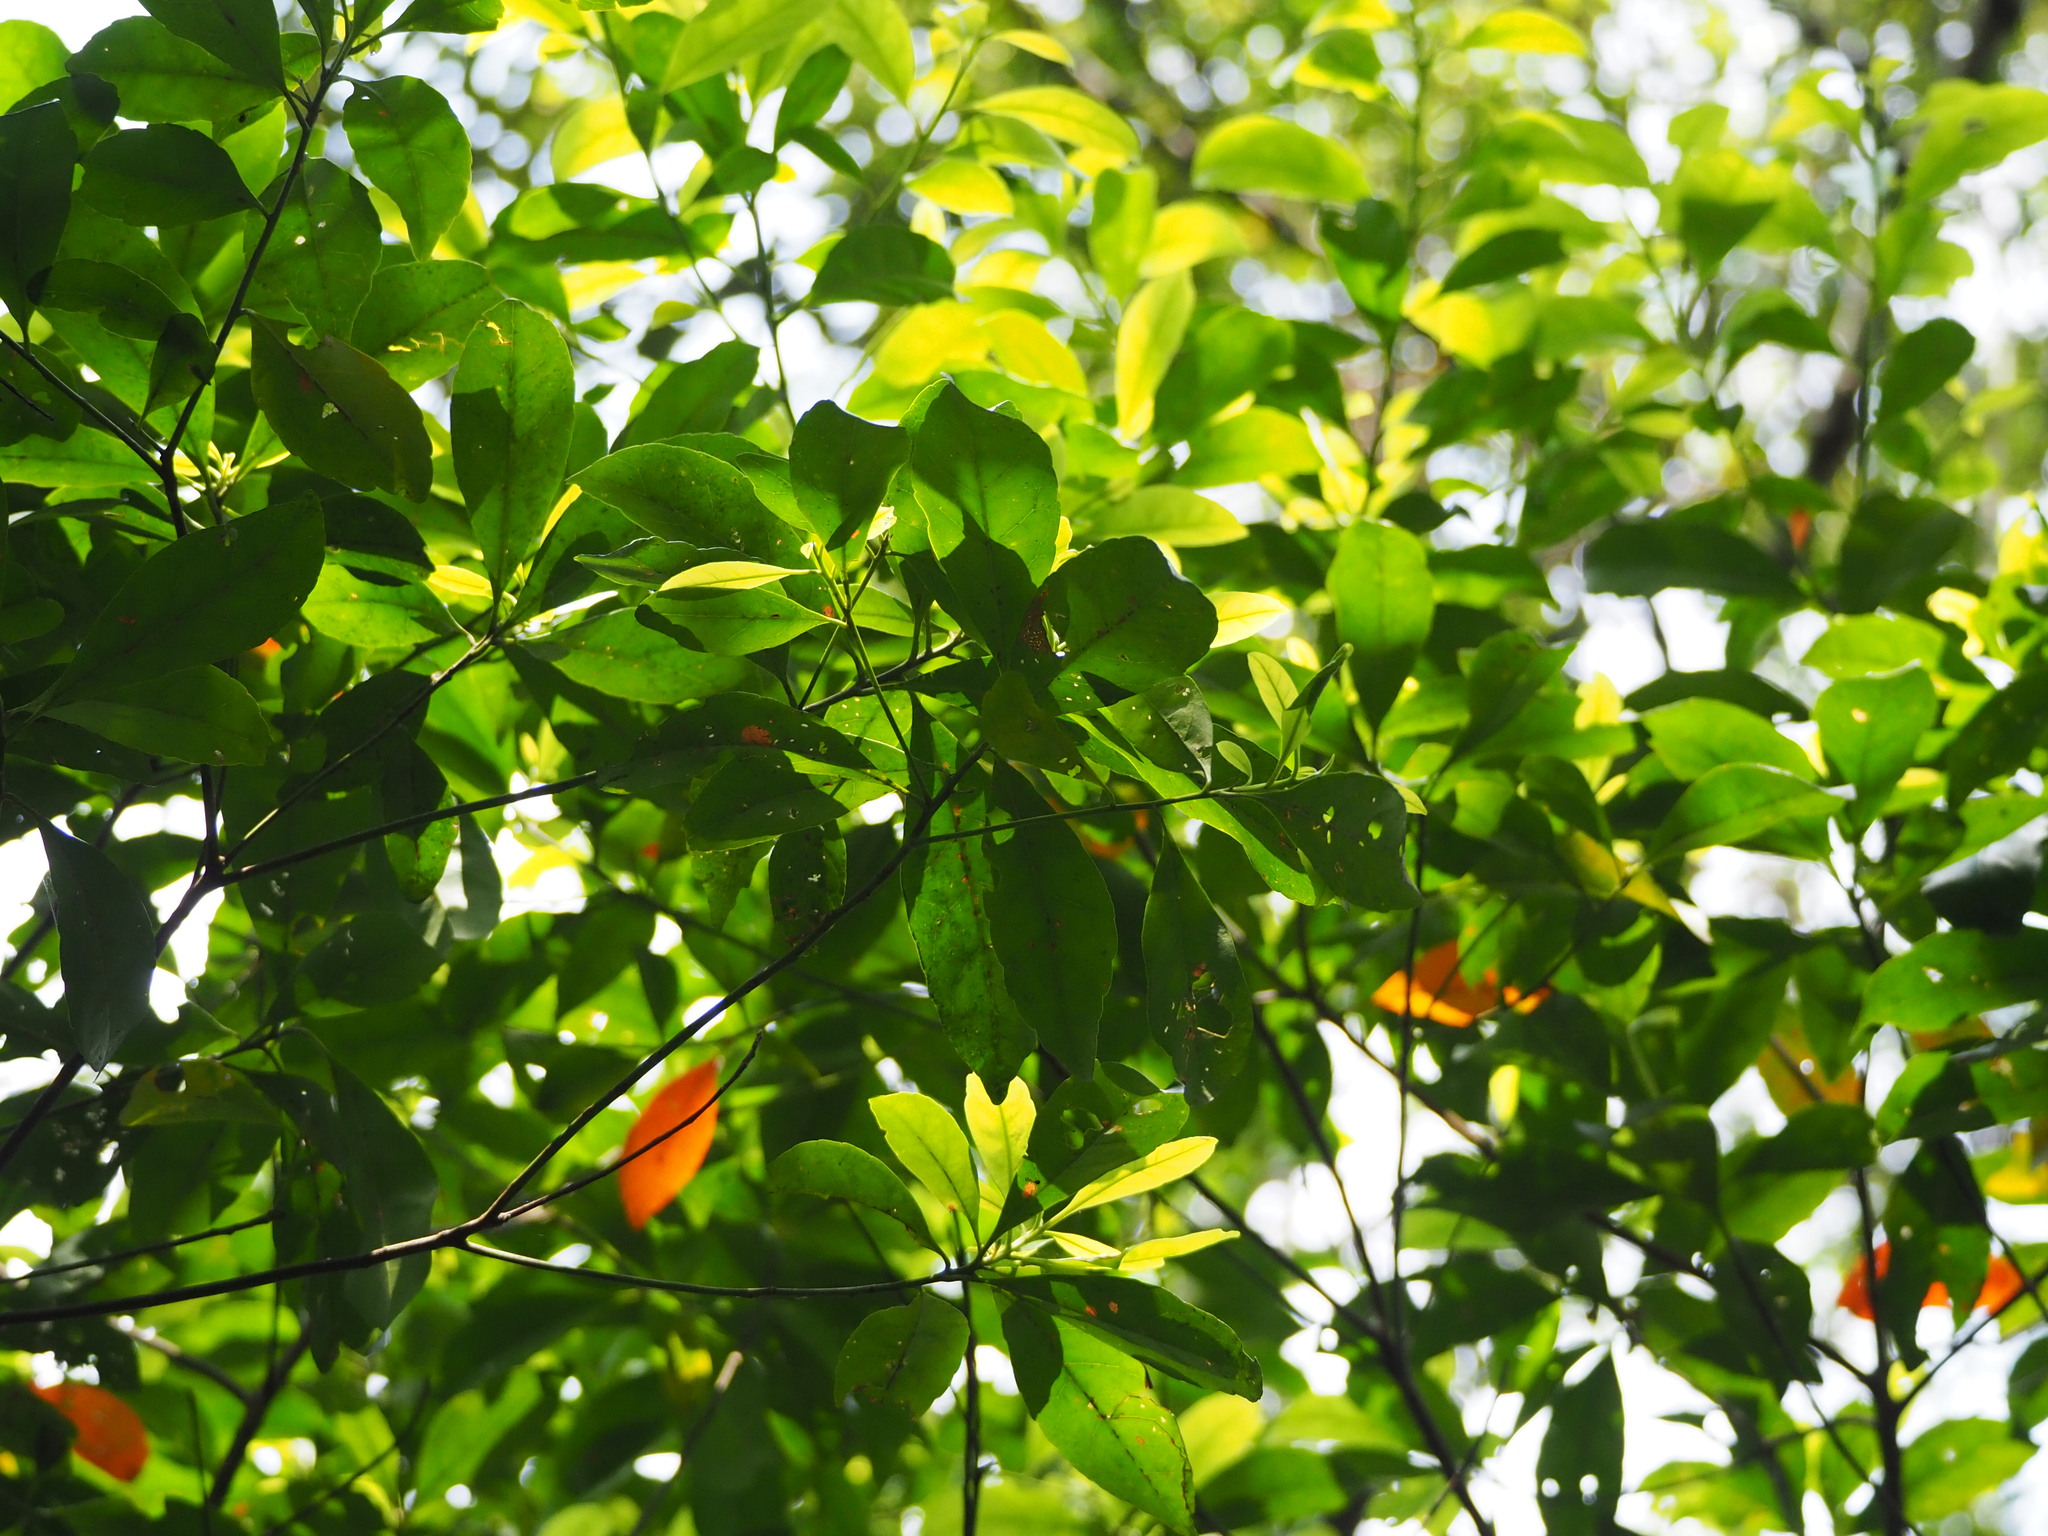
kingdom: Plantae
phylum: Tracheophyta
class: Magnoliopsida
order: Oxalidales
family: Elaeocarpaceae
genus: Elaeocarpus
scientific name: Elaeocarpus decipiens
